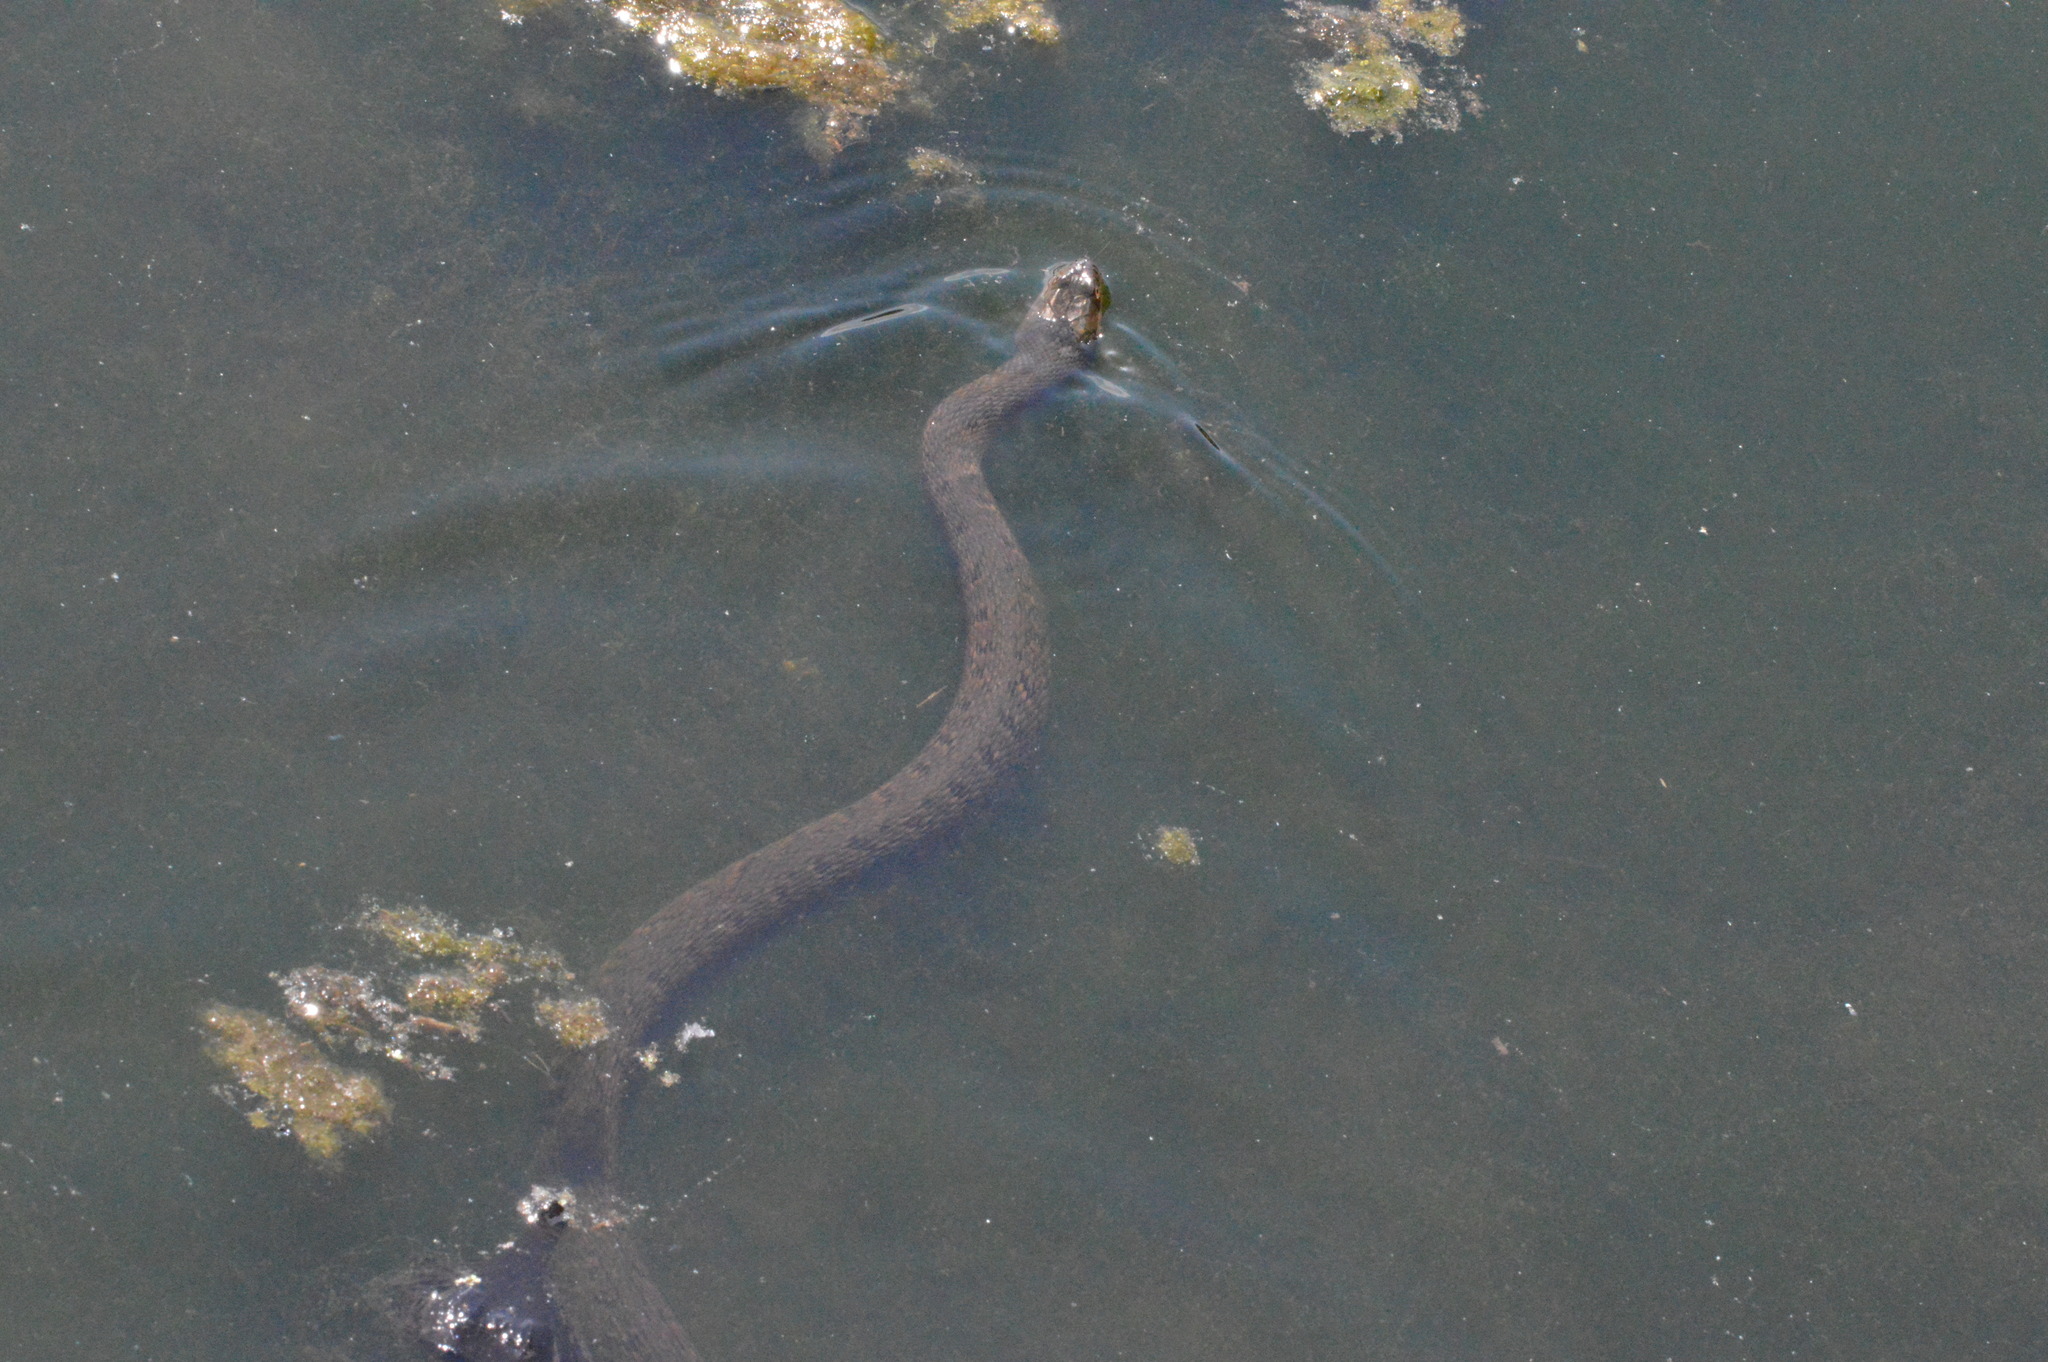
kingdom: Animalia
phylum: Chordata
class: Squamata
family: Colubridae
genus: Nerodia
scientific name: Nerodia cyclopion
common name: Mississippi green water snake
